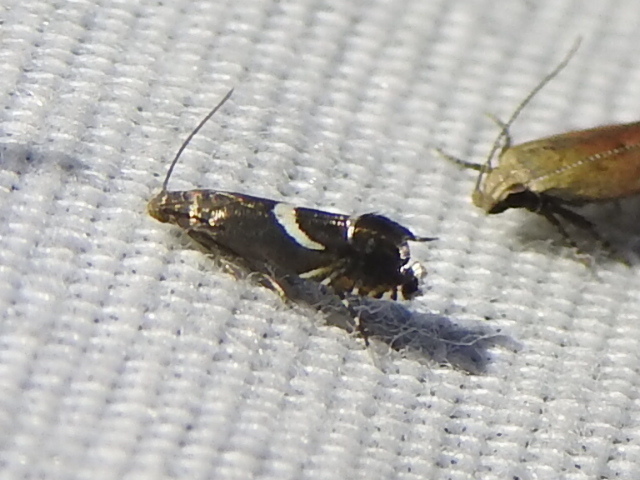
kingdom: Animalia
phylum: Arthropoda
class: Insecta
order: Lepidoptera
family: Glyphipterigidae
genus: Glyphipterix
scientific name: Glyphipterix Diploschizia impigritella
